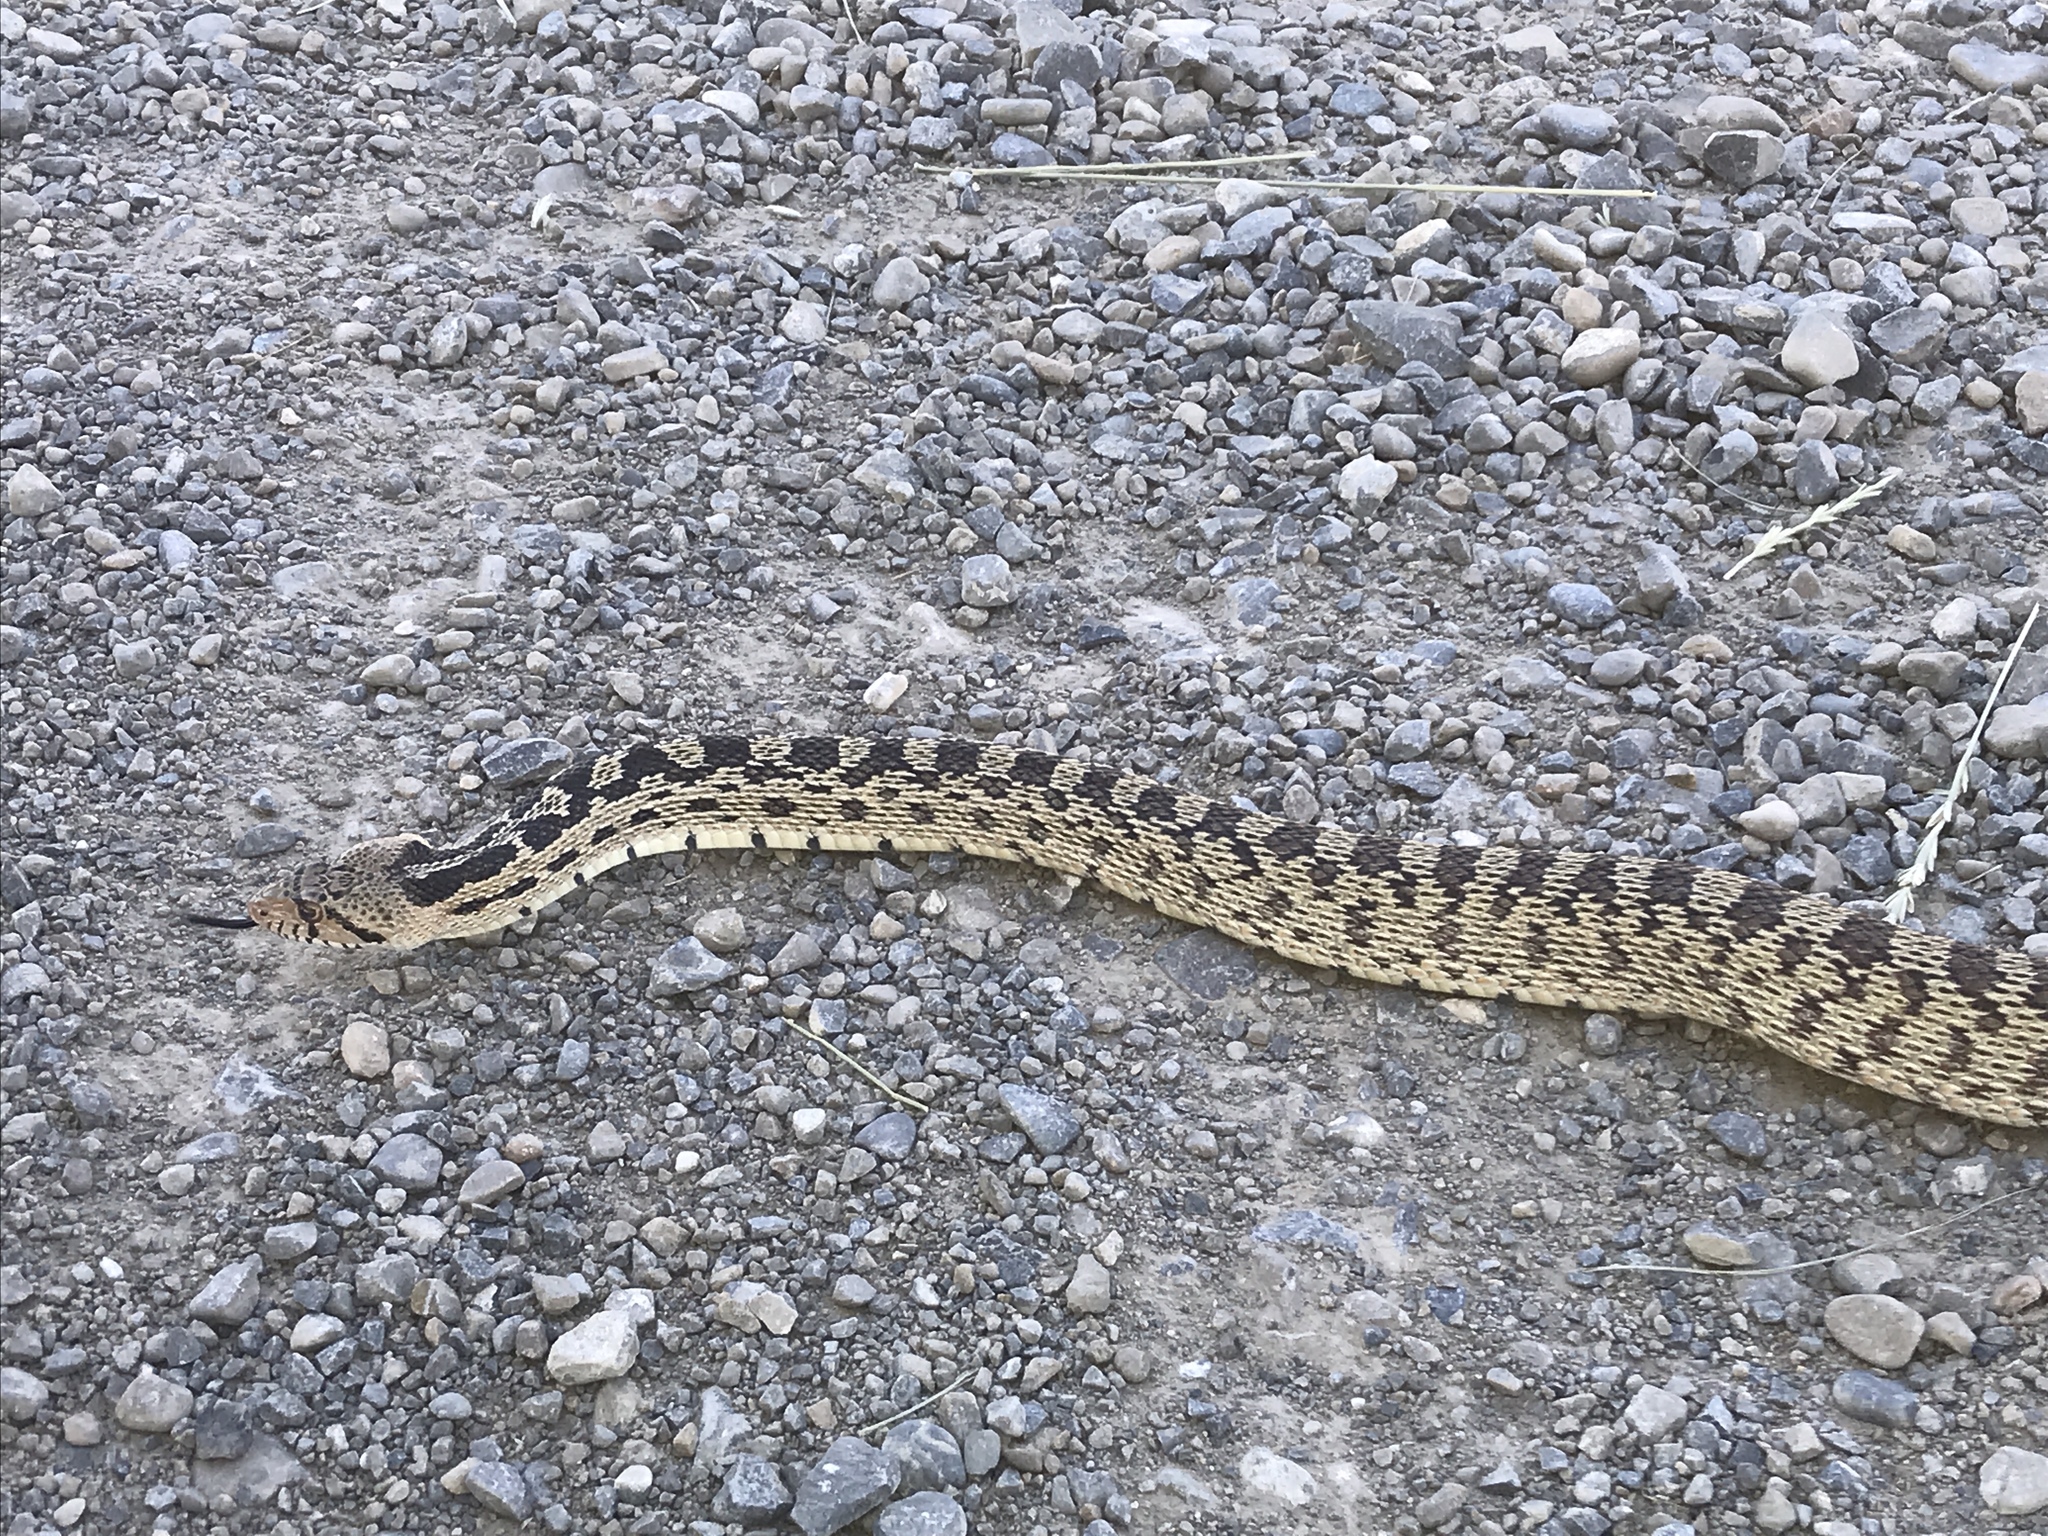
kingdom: Animalia
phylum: Chordata
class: Squamata
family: Colubridae
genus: Pituophis
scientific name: Pituophis catenifer
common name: Gopher snake
